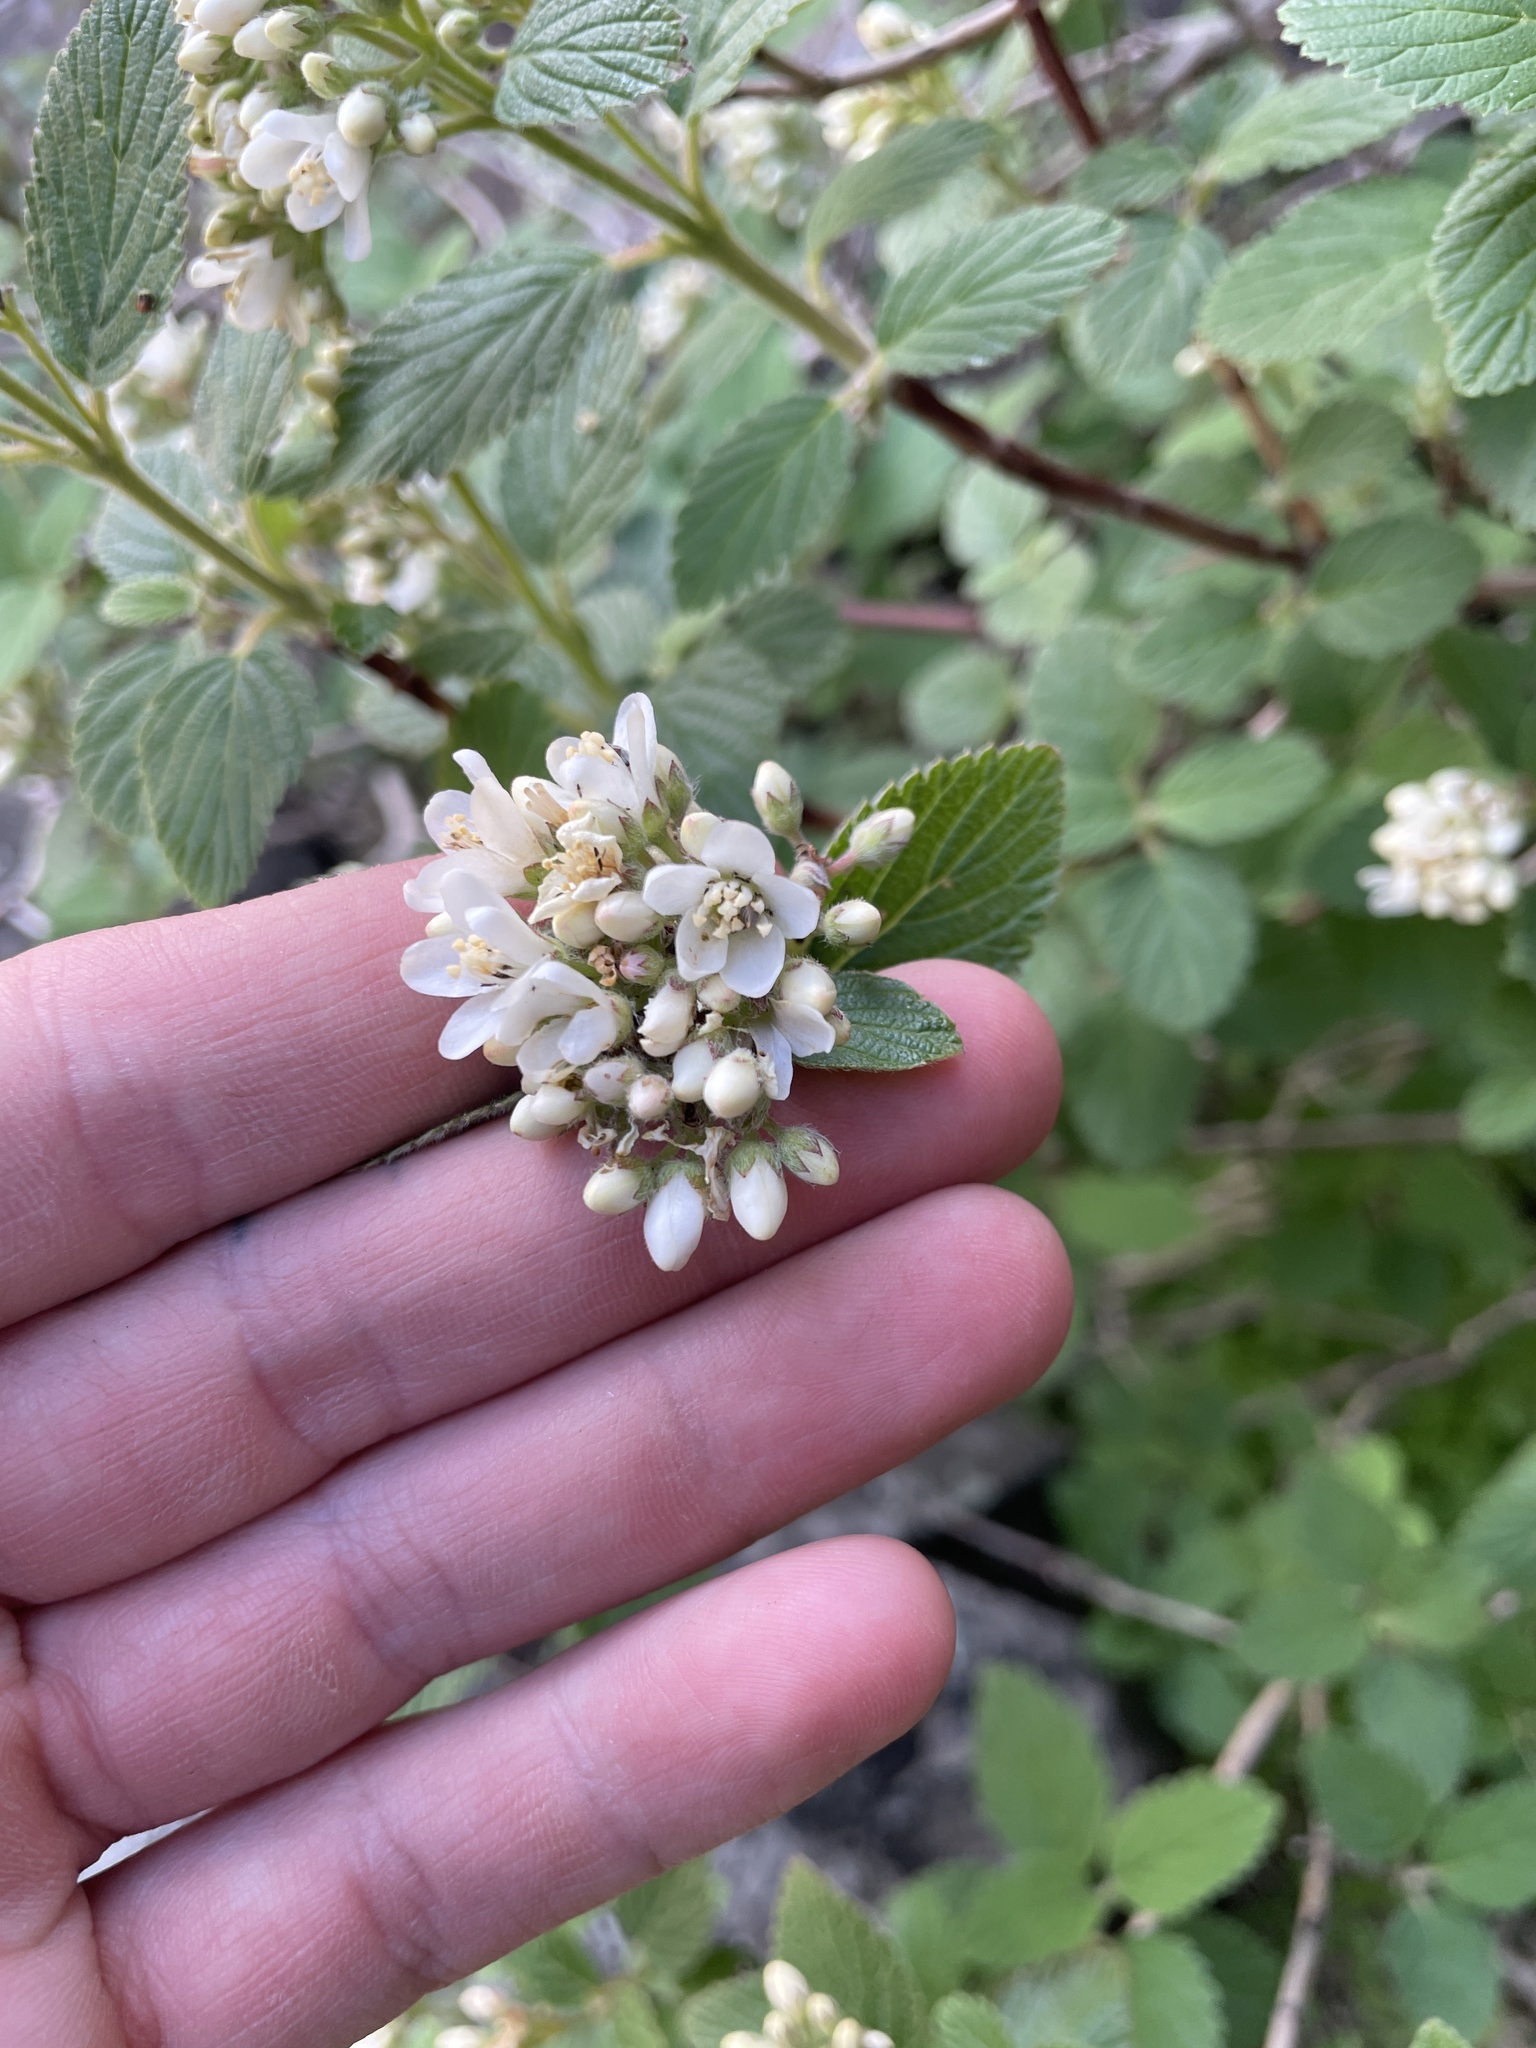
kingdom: Plantae
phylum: Tracheophyta
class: Magnoliopsida
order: Cornales
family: Hydrangeaceae
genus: Jamesia
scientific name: Jamesia americana
